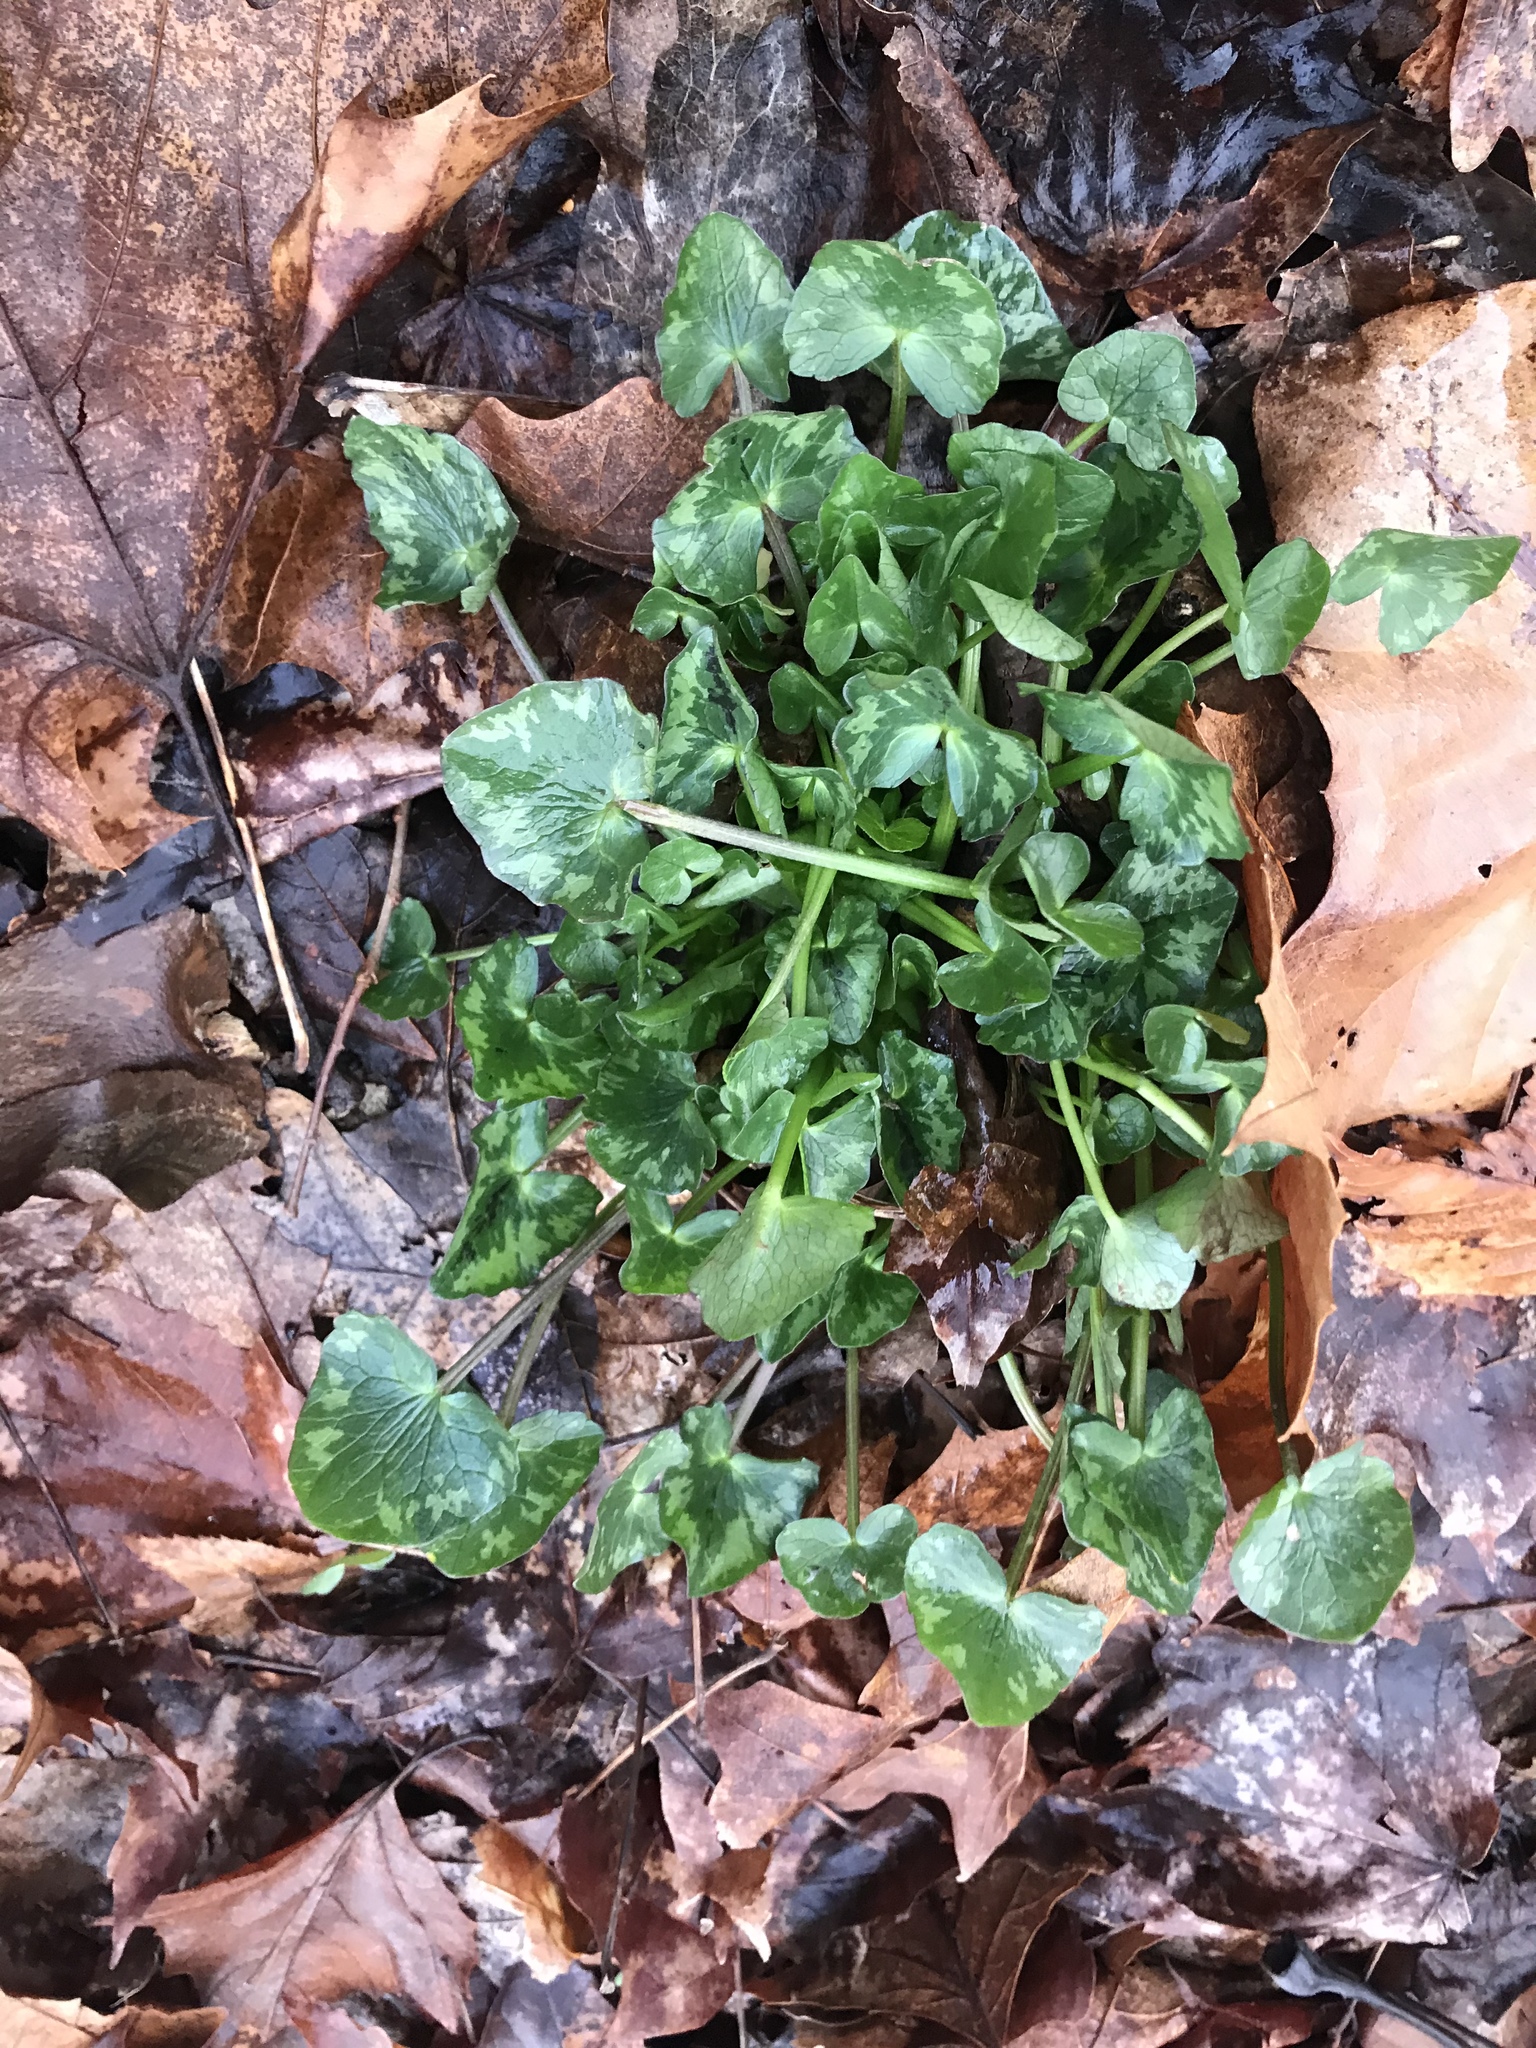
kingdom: Plantae
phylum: Tracheophyta
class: Magnoliopsida
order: Ranunculales
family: Ranunculaceae
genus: Ficaria
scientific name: Ficaria verna
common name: Lesser celandine
